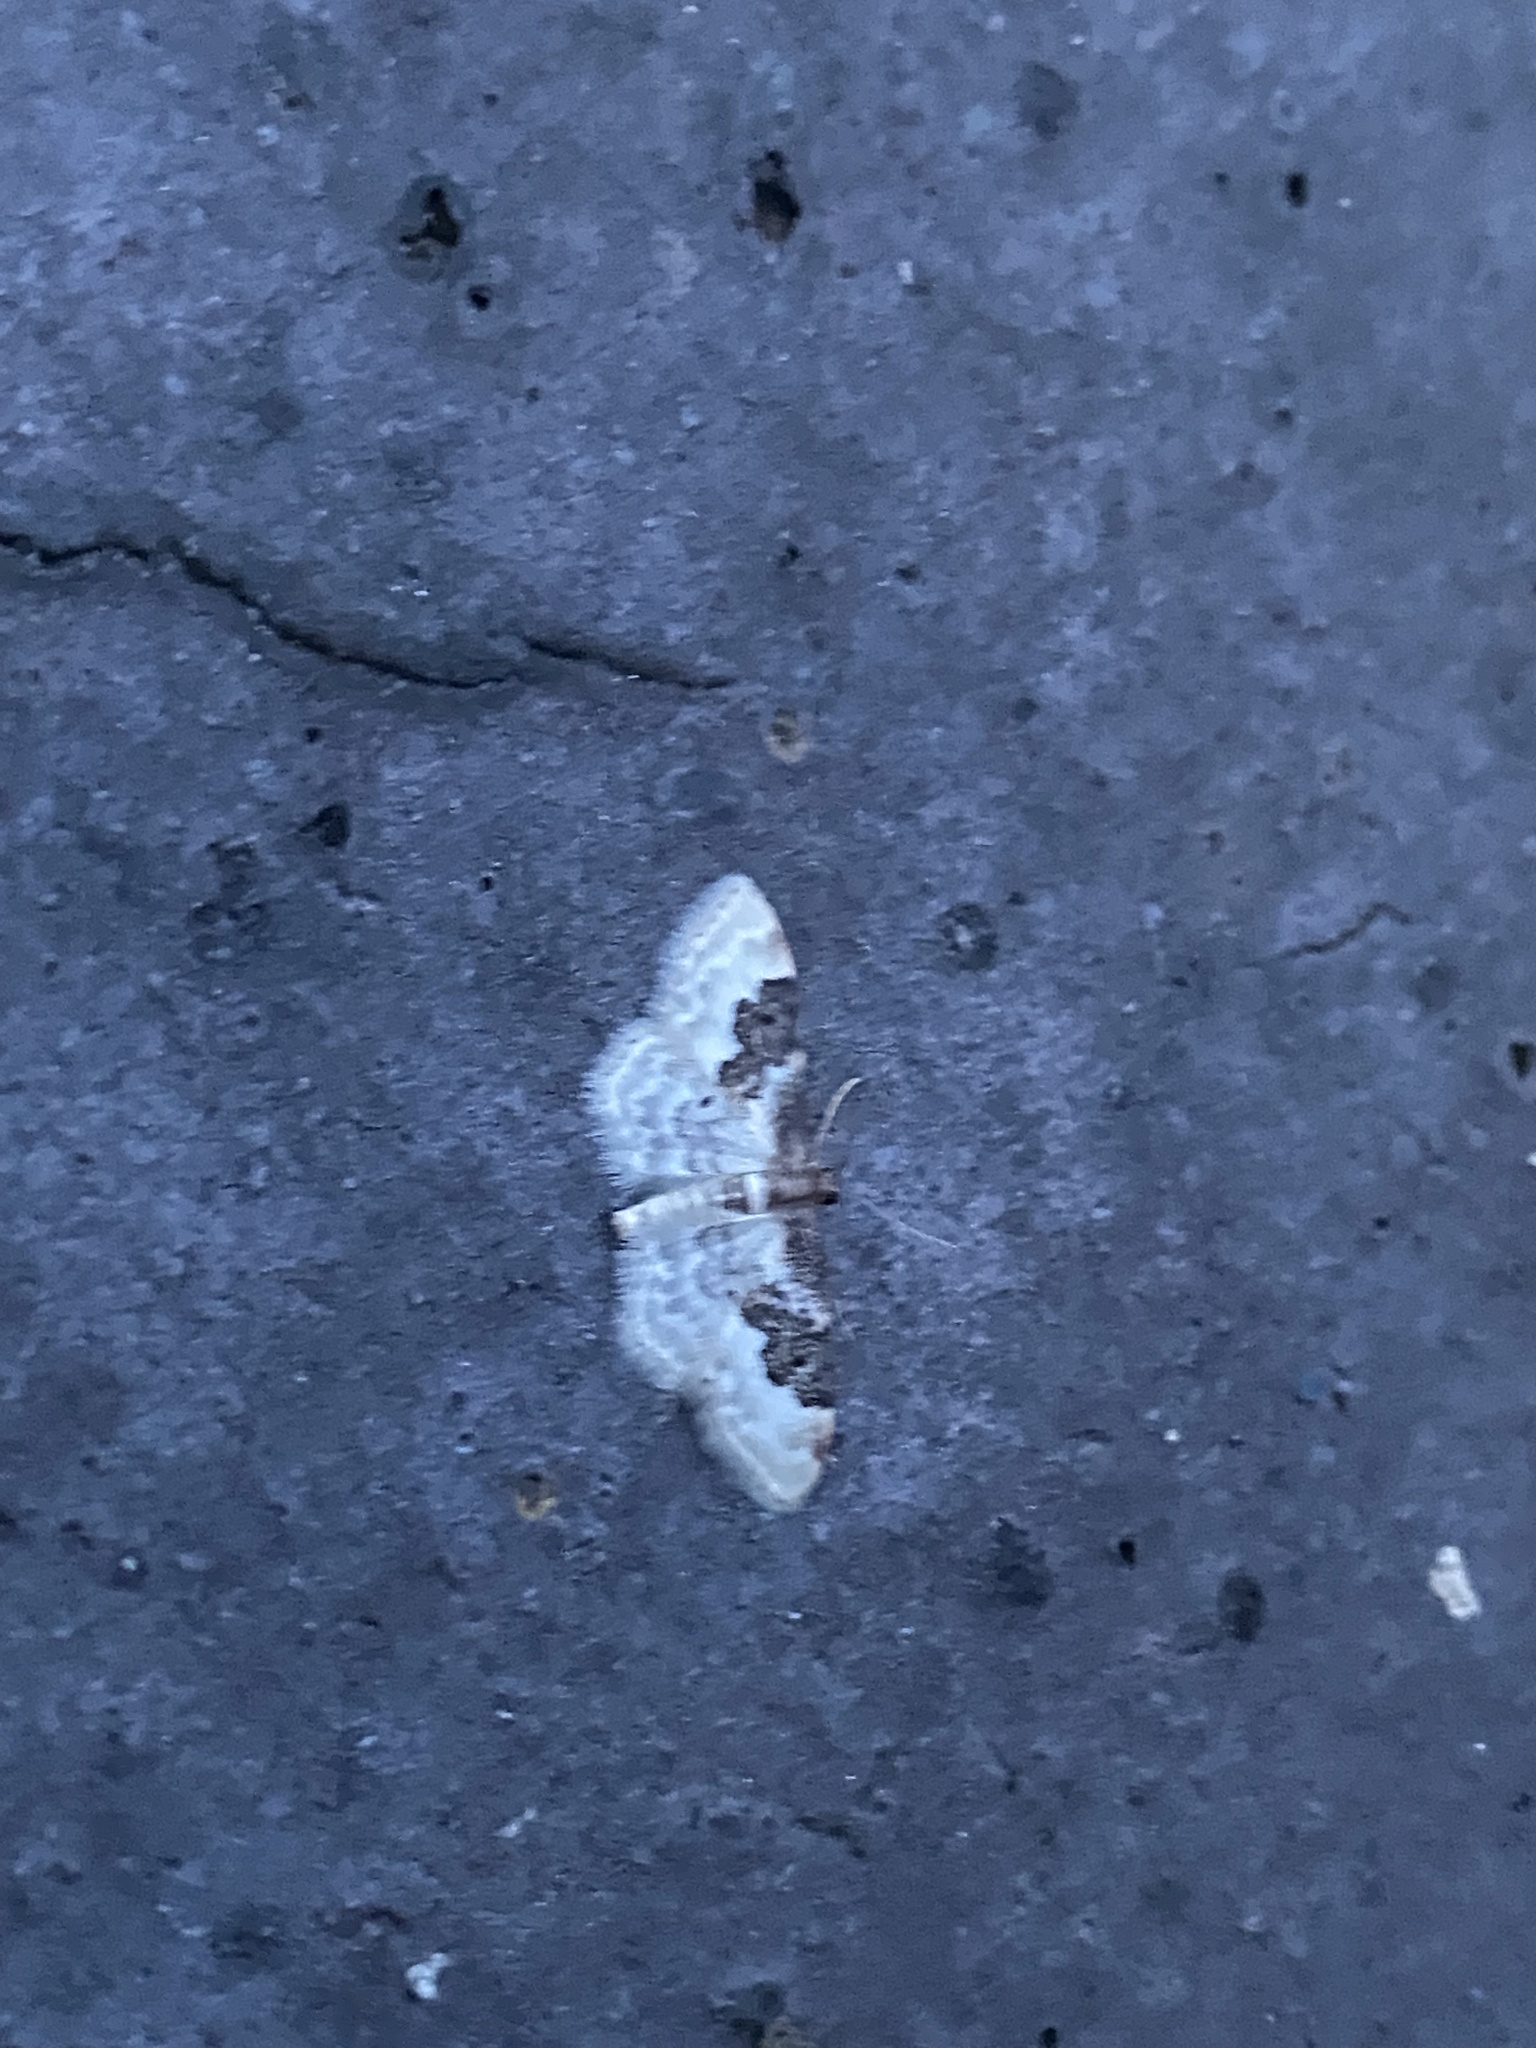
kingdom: Animalia
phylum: Arthropoda
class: Insecta
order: Lepidoptera
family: Geometridae
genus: Idaea
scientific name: Idaea rusticata
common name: Least carpet
